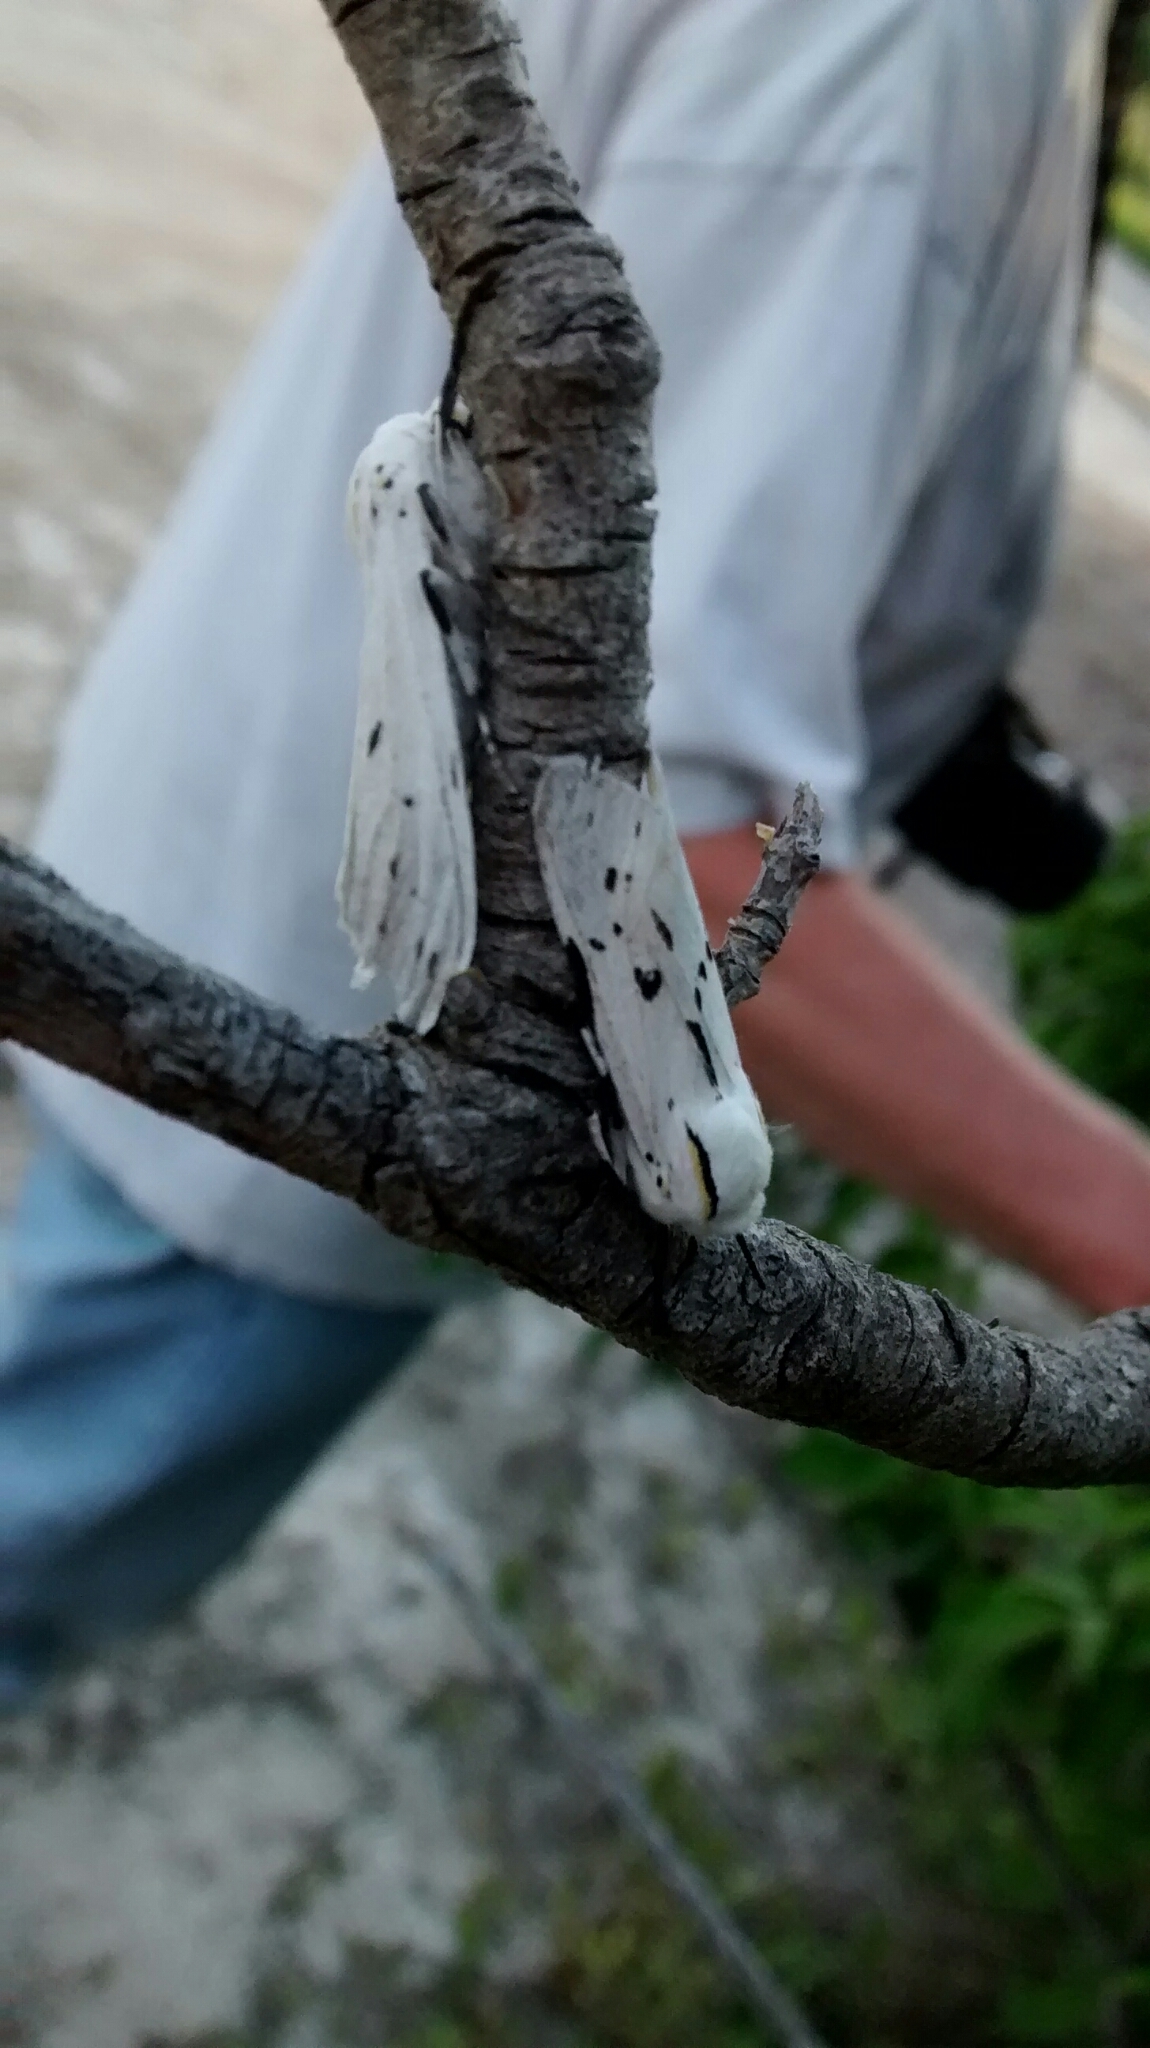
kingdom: Animalia
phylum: Arthropoda
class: Insecta
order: Lepidoptera
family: Erebidae
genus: Ectypia
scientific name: Ectypia bivittata
